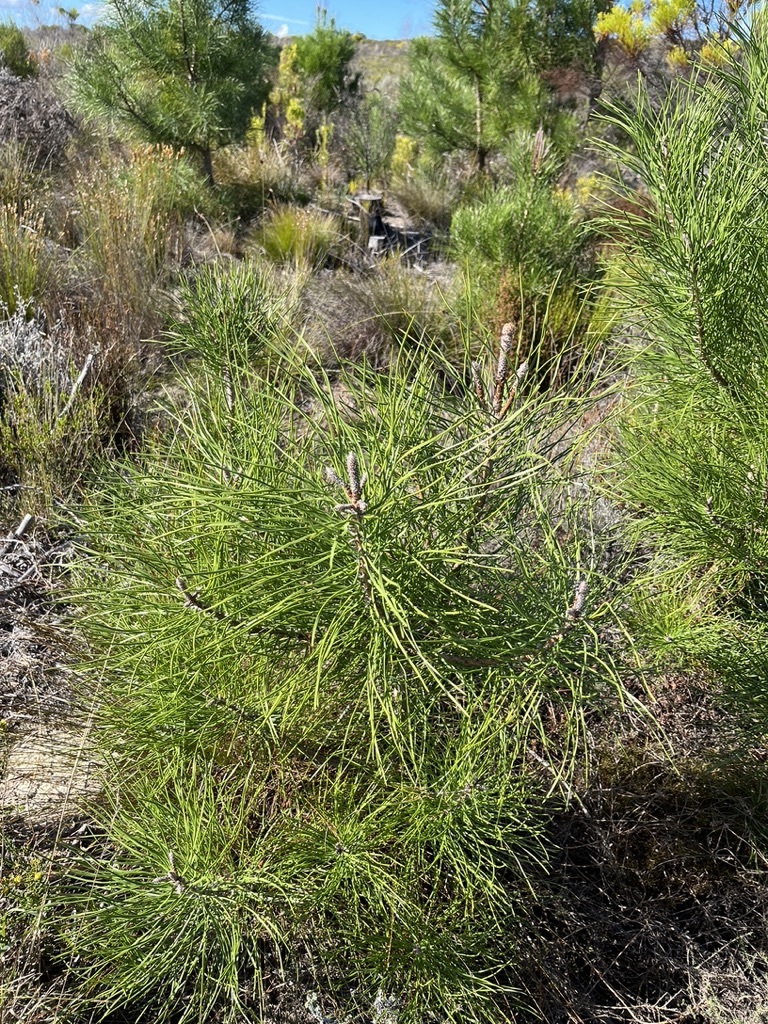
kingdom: Plantae
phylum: Tracheophyta
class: Pinopsida
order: Pinales
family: Pinaceae
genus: Pinus
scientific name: Pinus pinaster
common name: Maritime pine
